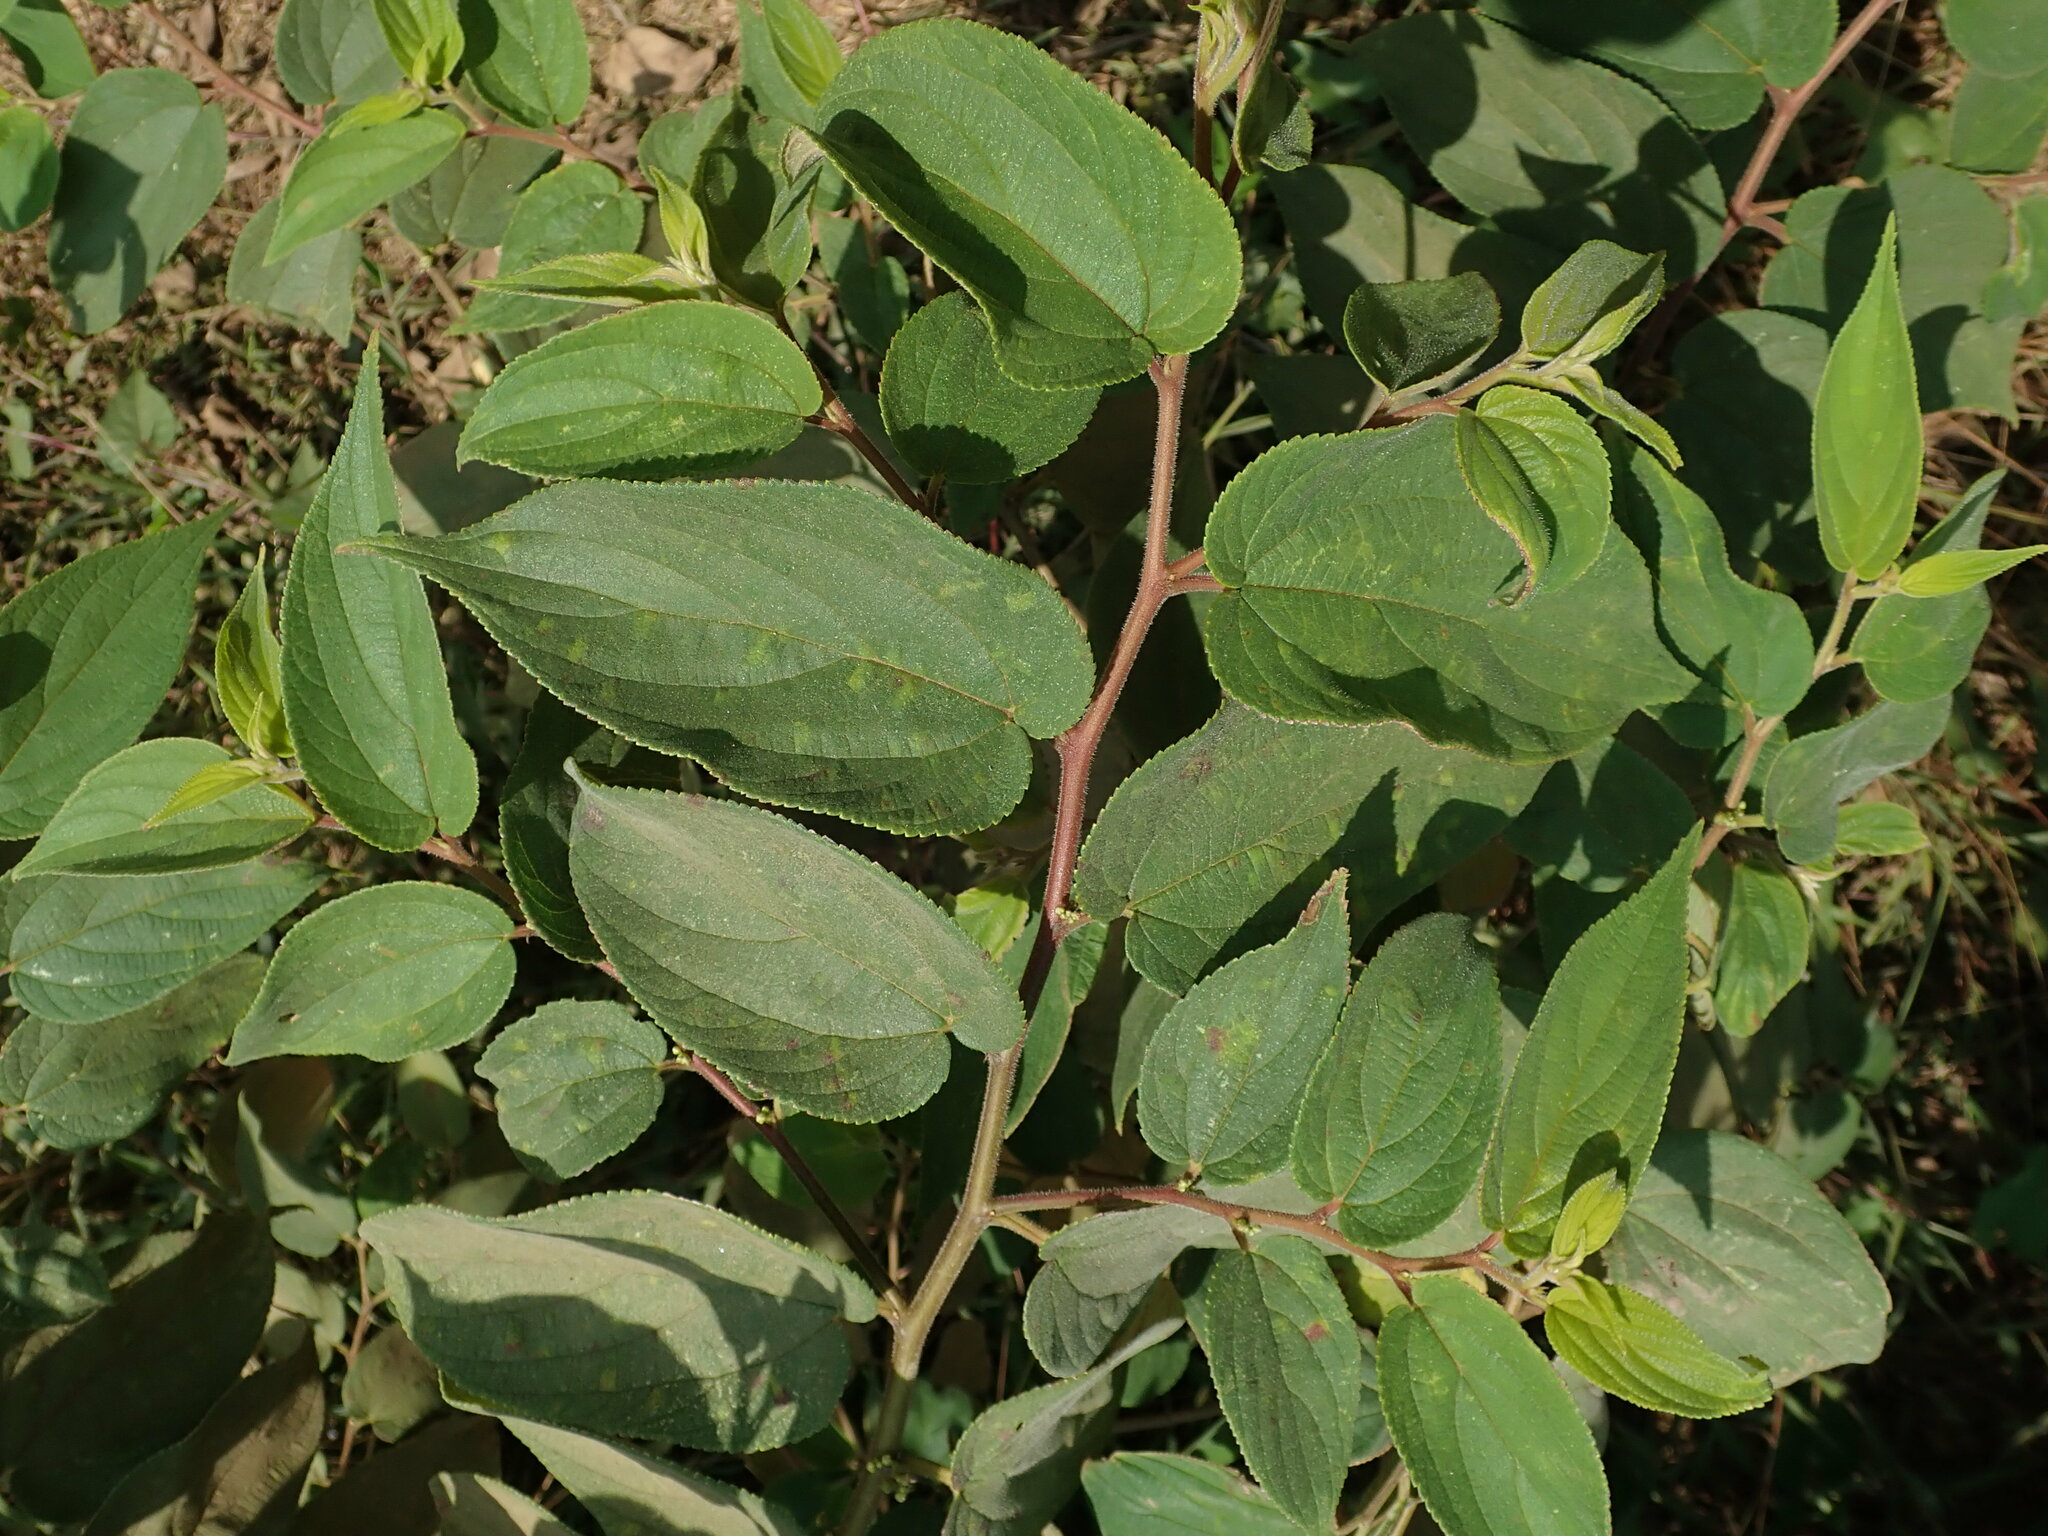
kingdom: Plantae
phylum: Tracheophyta
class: Magnoliopsida
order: Rosales
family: Cannabaceae
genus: Trema
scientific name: Trema orientale
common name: Indian charcoal tree
